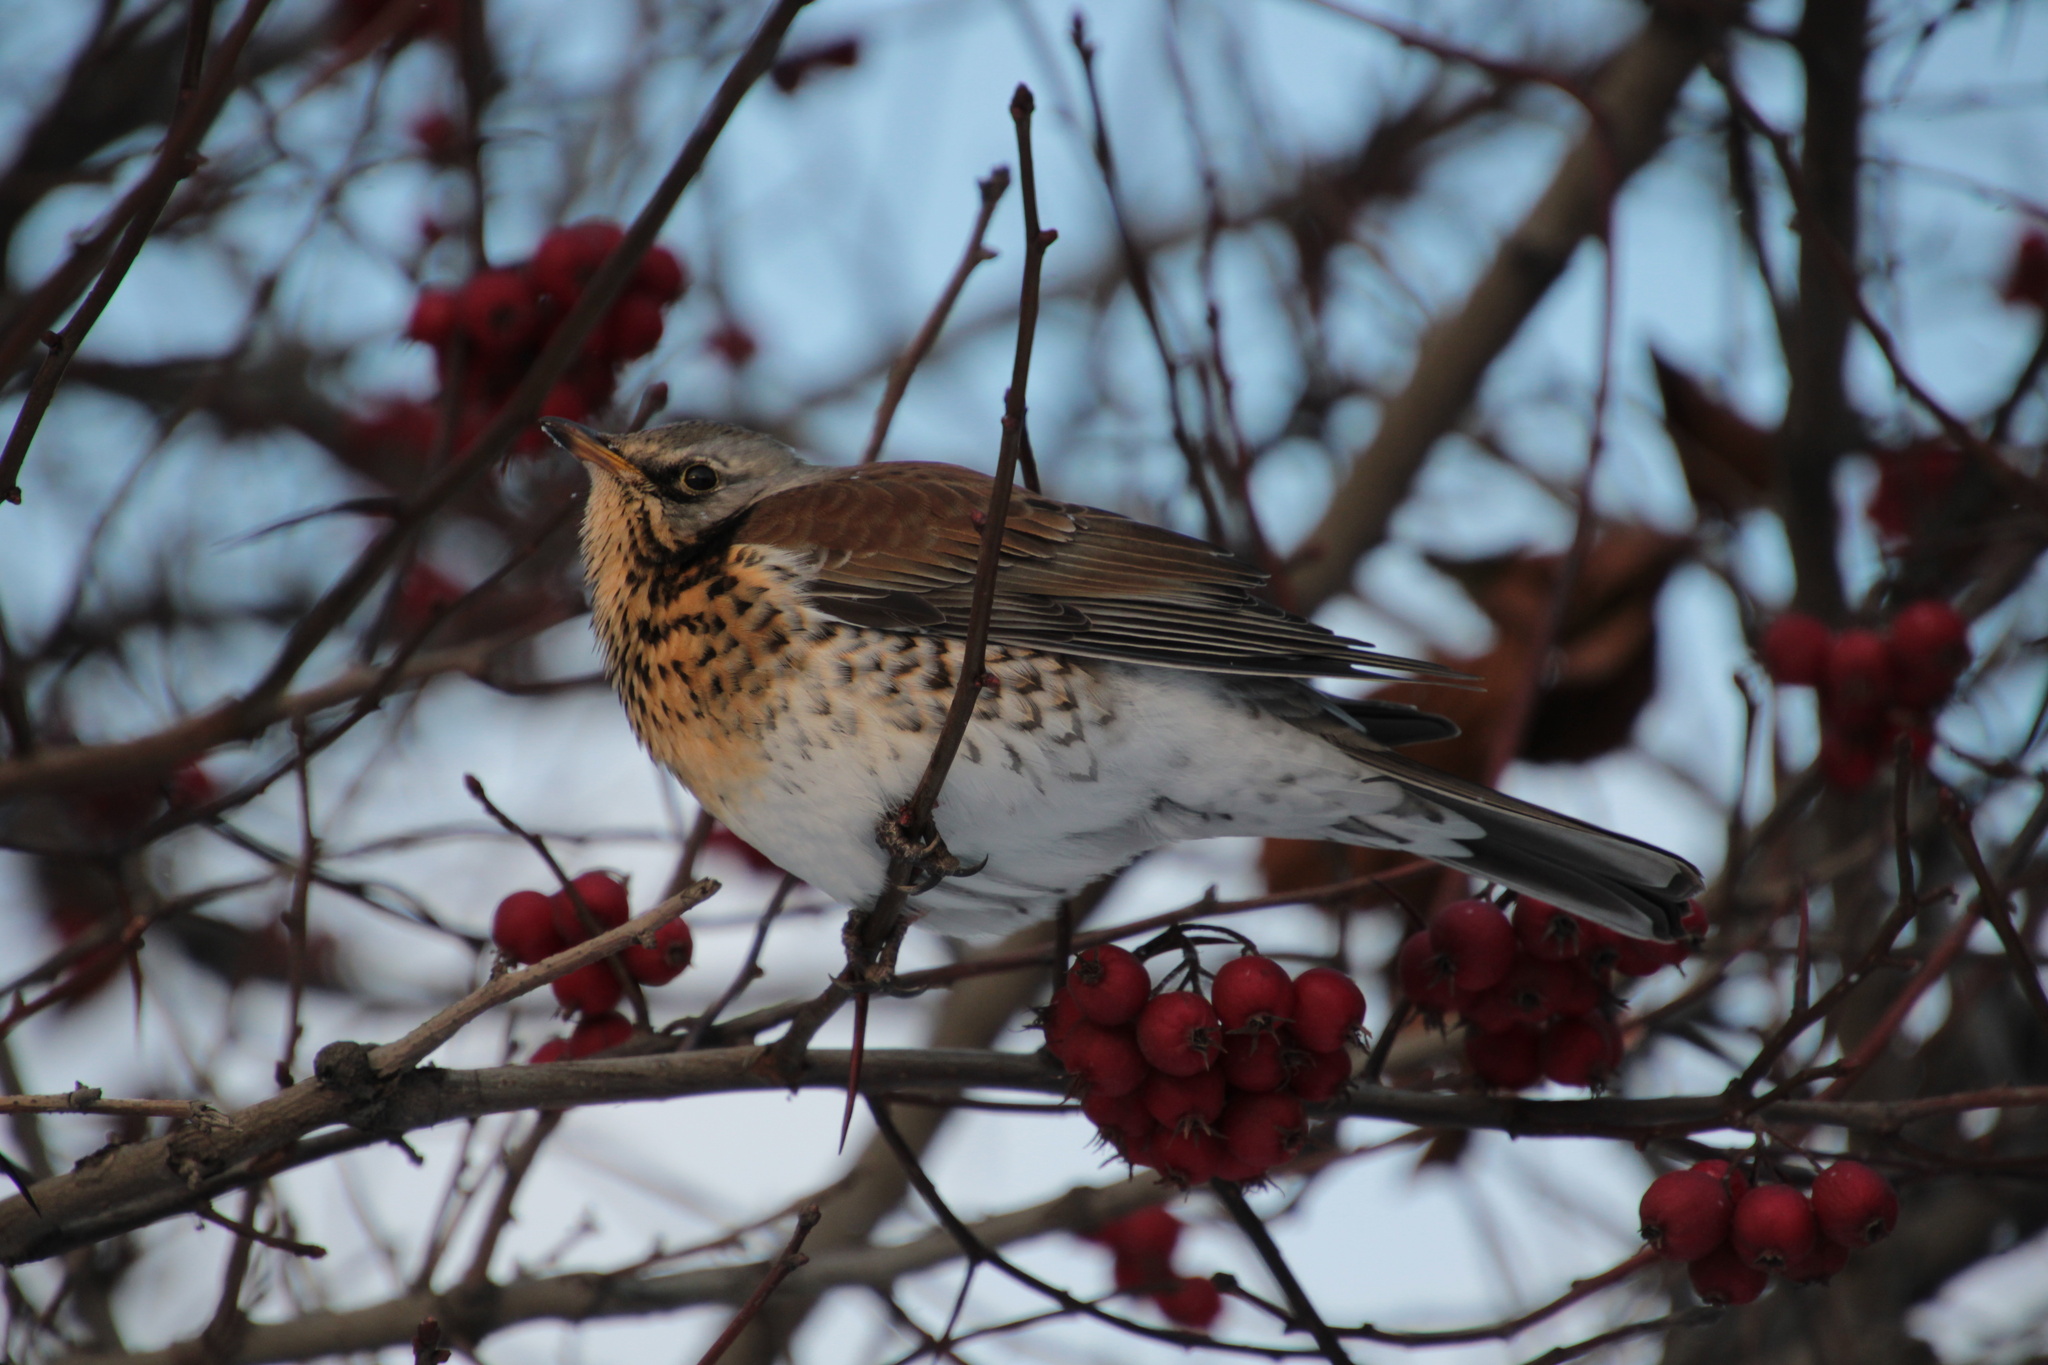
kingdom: Animalia
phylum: Chordata
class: Aves
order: Passeriformes
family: Turdidae
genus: Turdus
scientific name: Turdus pilaris
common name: Fieldfare
